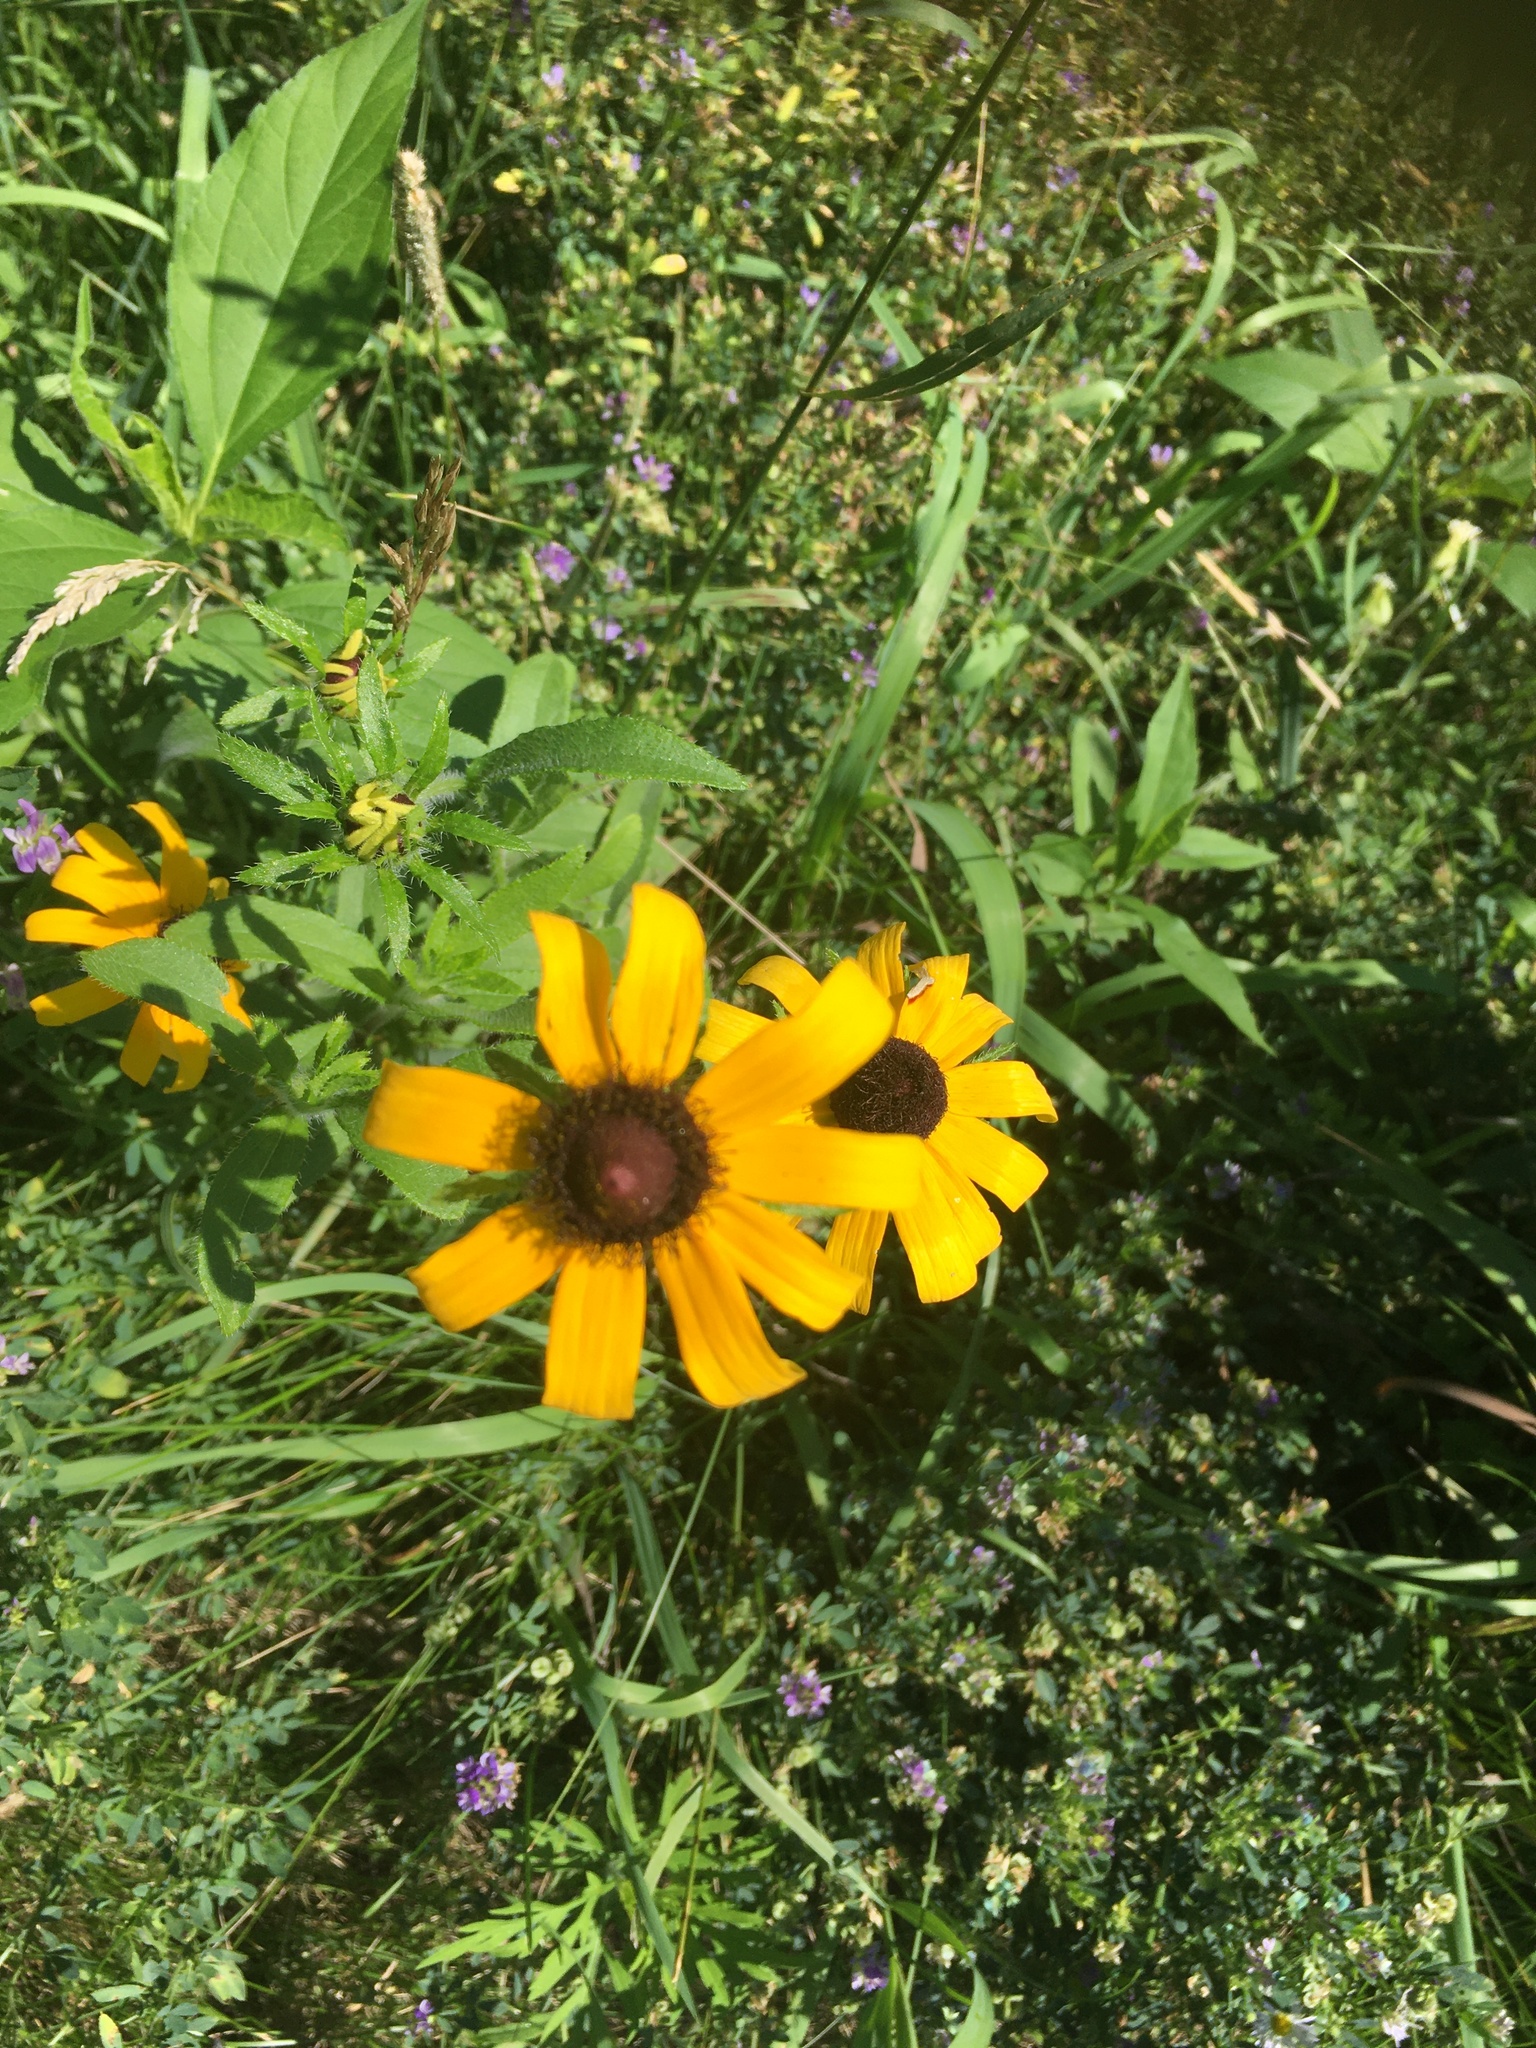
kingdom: Plantae
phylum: Tracheophyta
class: Magnoliopsida
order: Asterales
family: Asteraceae
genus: Rudbeckia
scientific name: Rudbeckia hirta
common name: Black-eyed-susan
